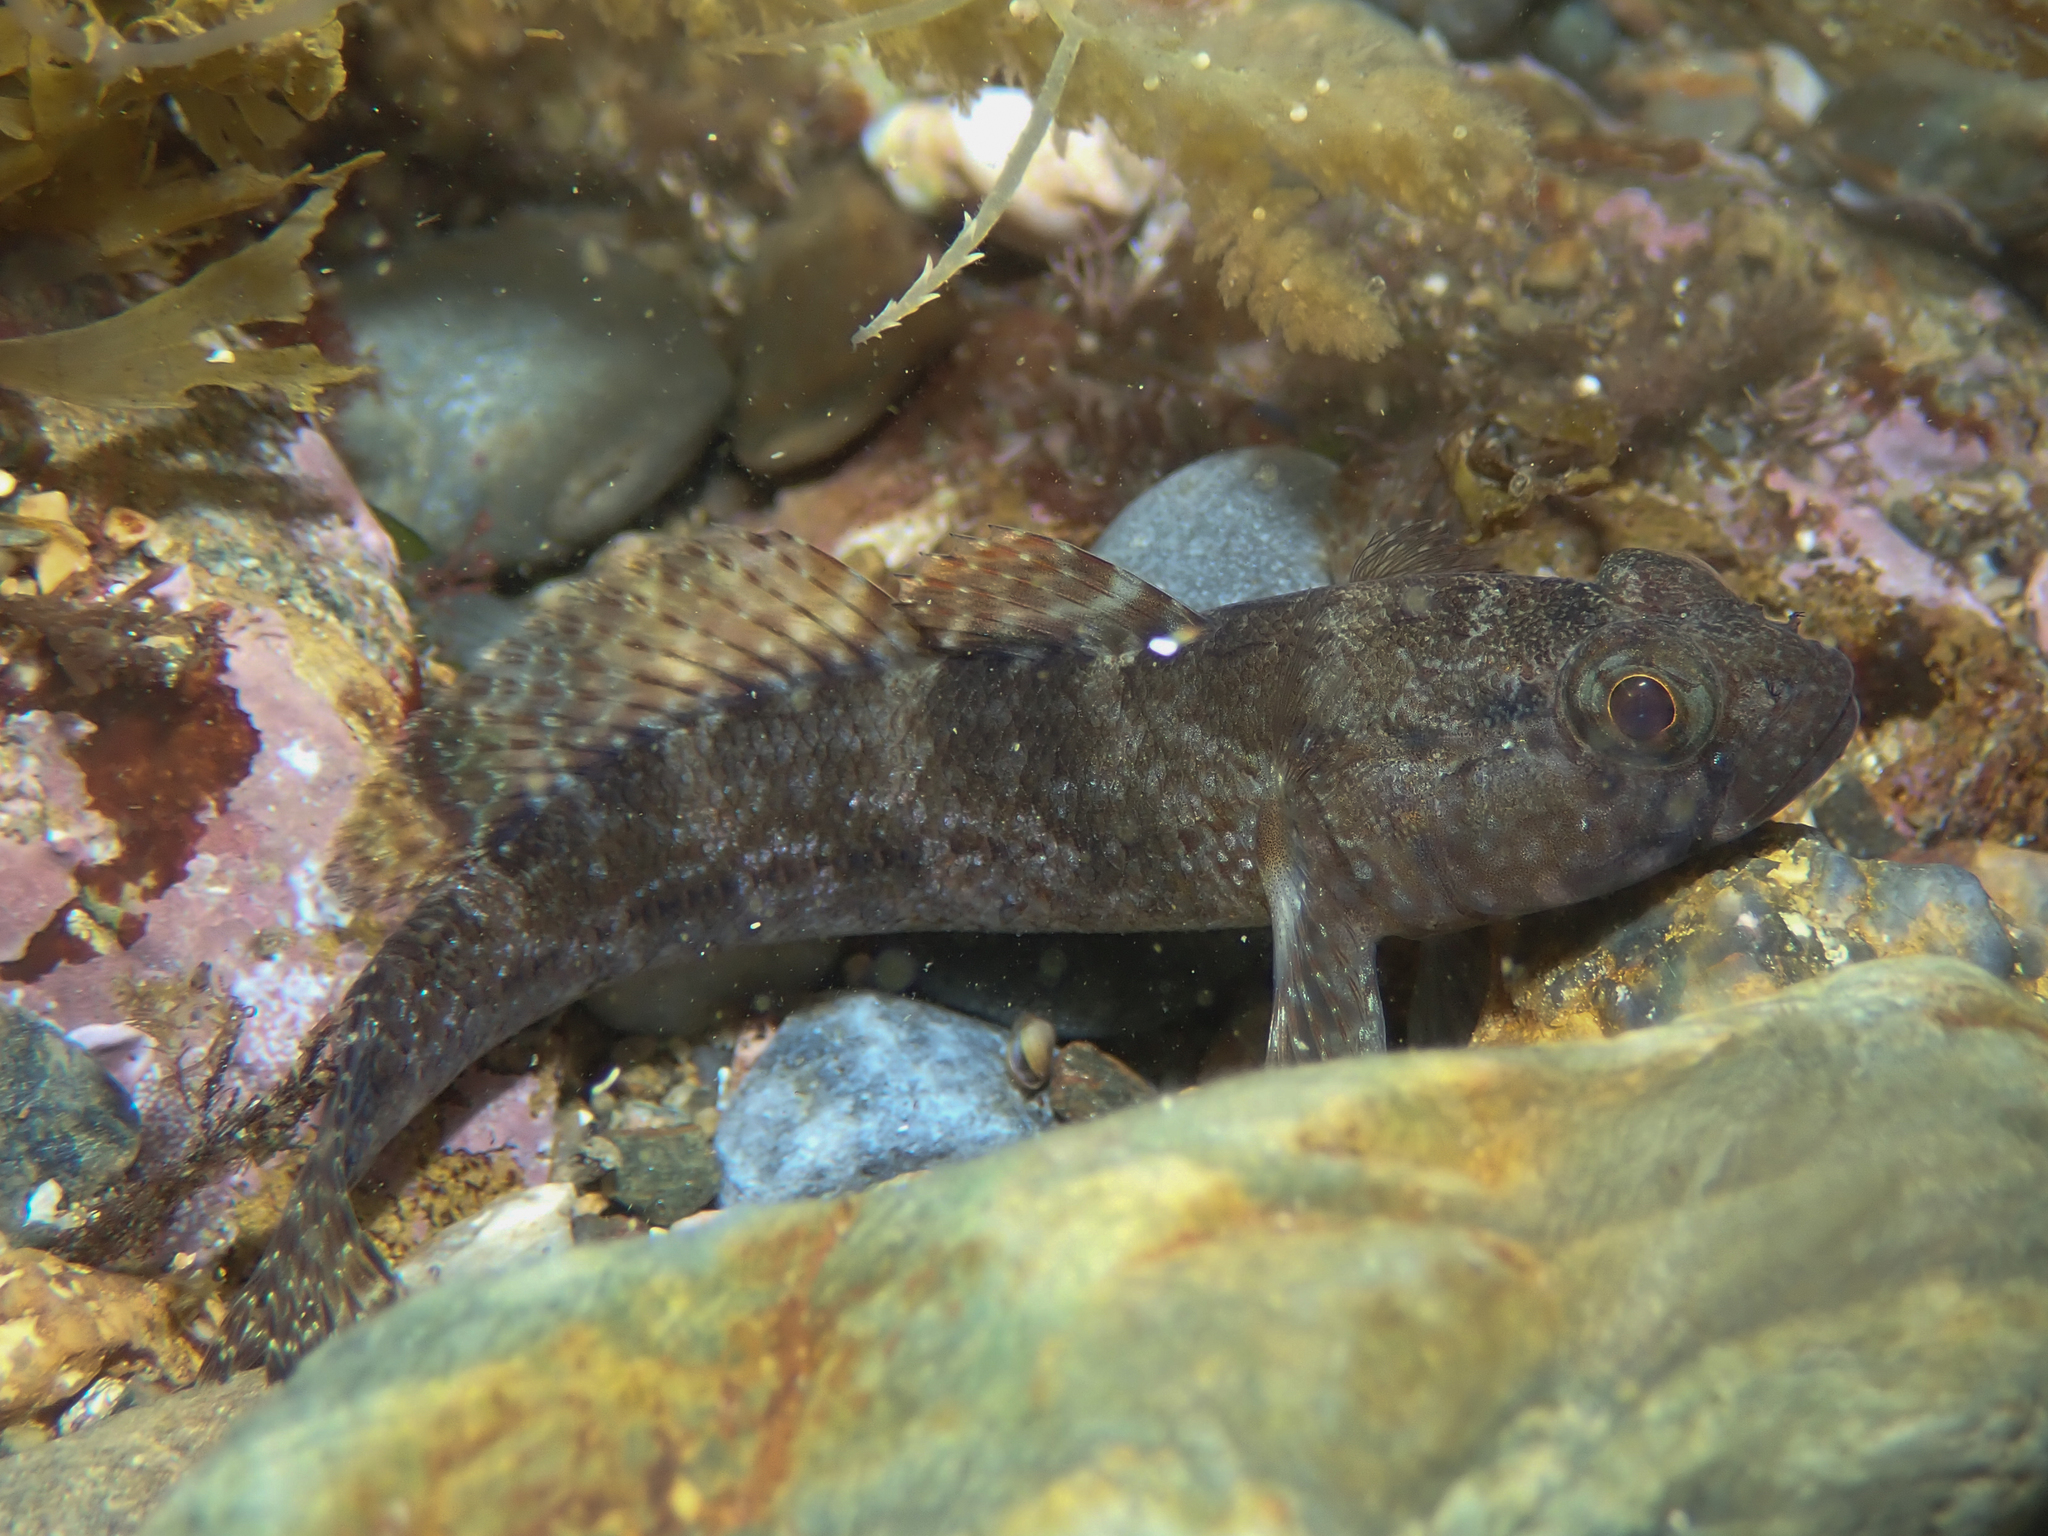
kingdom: Animalia
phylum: Chordata
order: Perciformes
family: Gobiidae
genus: Gobius
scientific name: Gobius paganellus
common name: Rock goby
